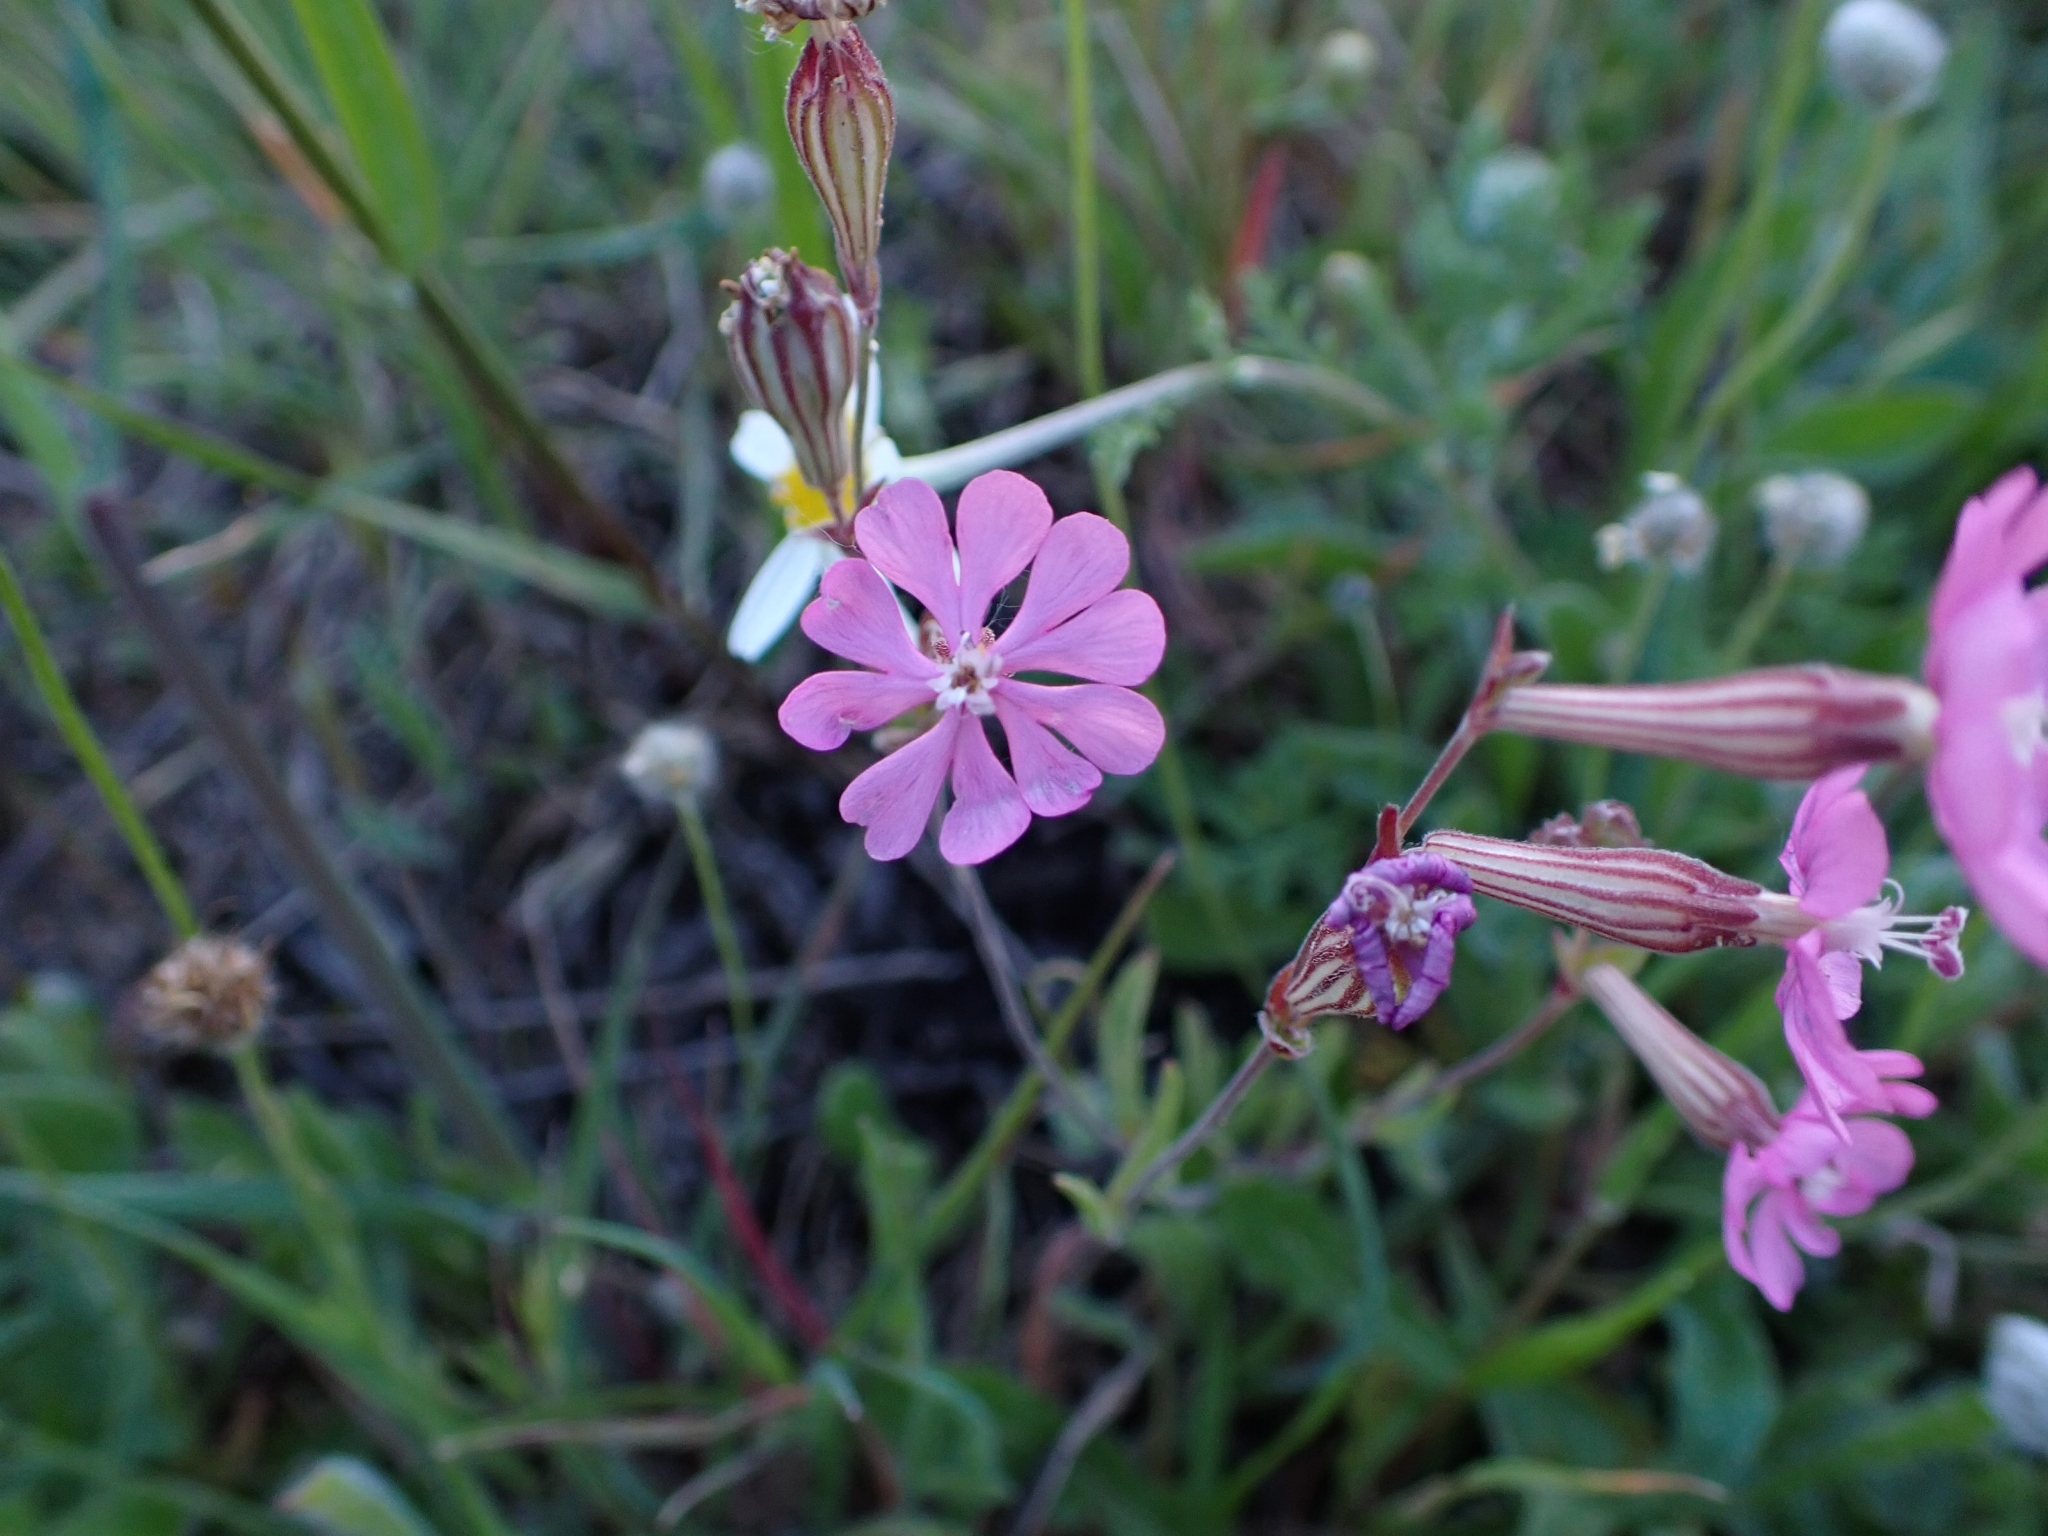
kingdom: Plantae
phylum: Tracheophyta
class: Magnoliopsida
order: Caryophyllales
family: Caryophyllaceae
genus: Silene
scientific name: Silene colorata
